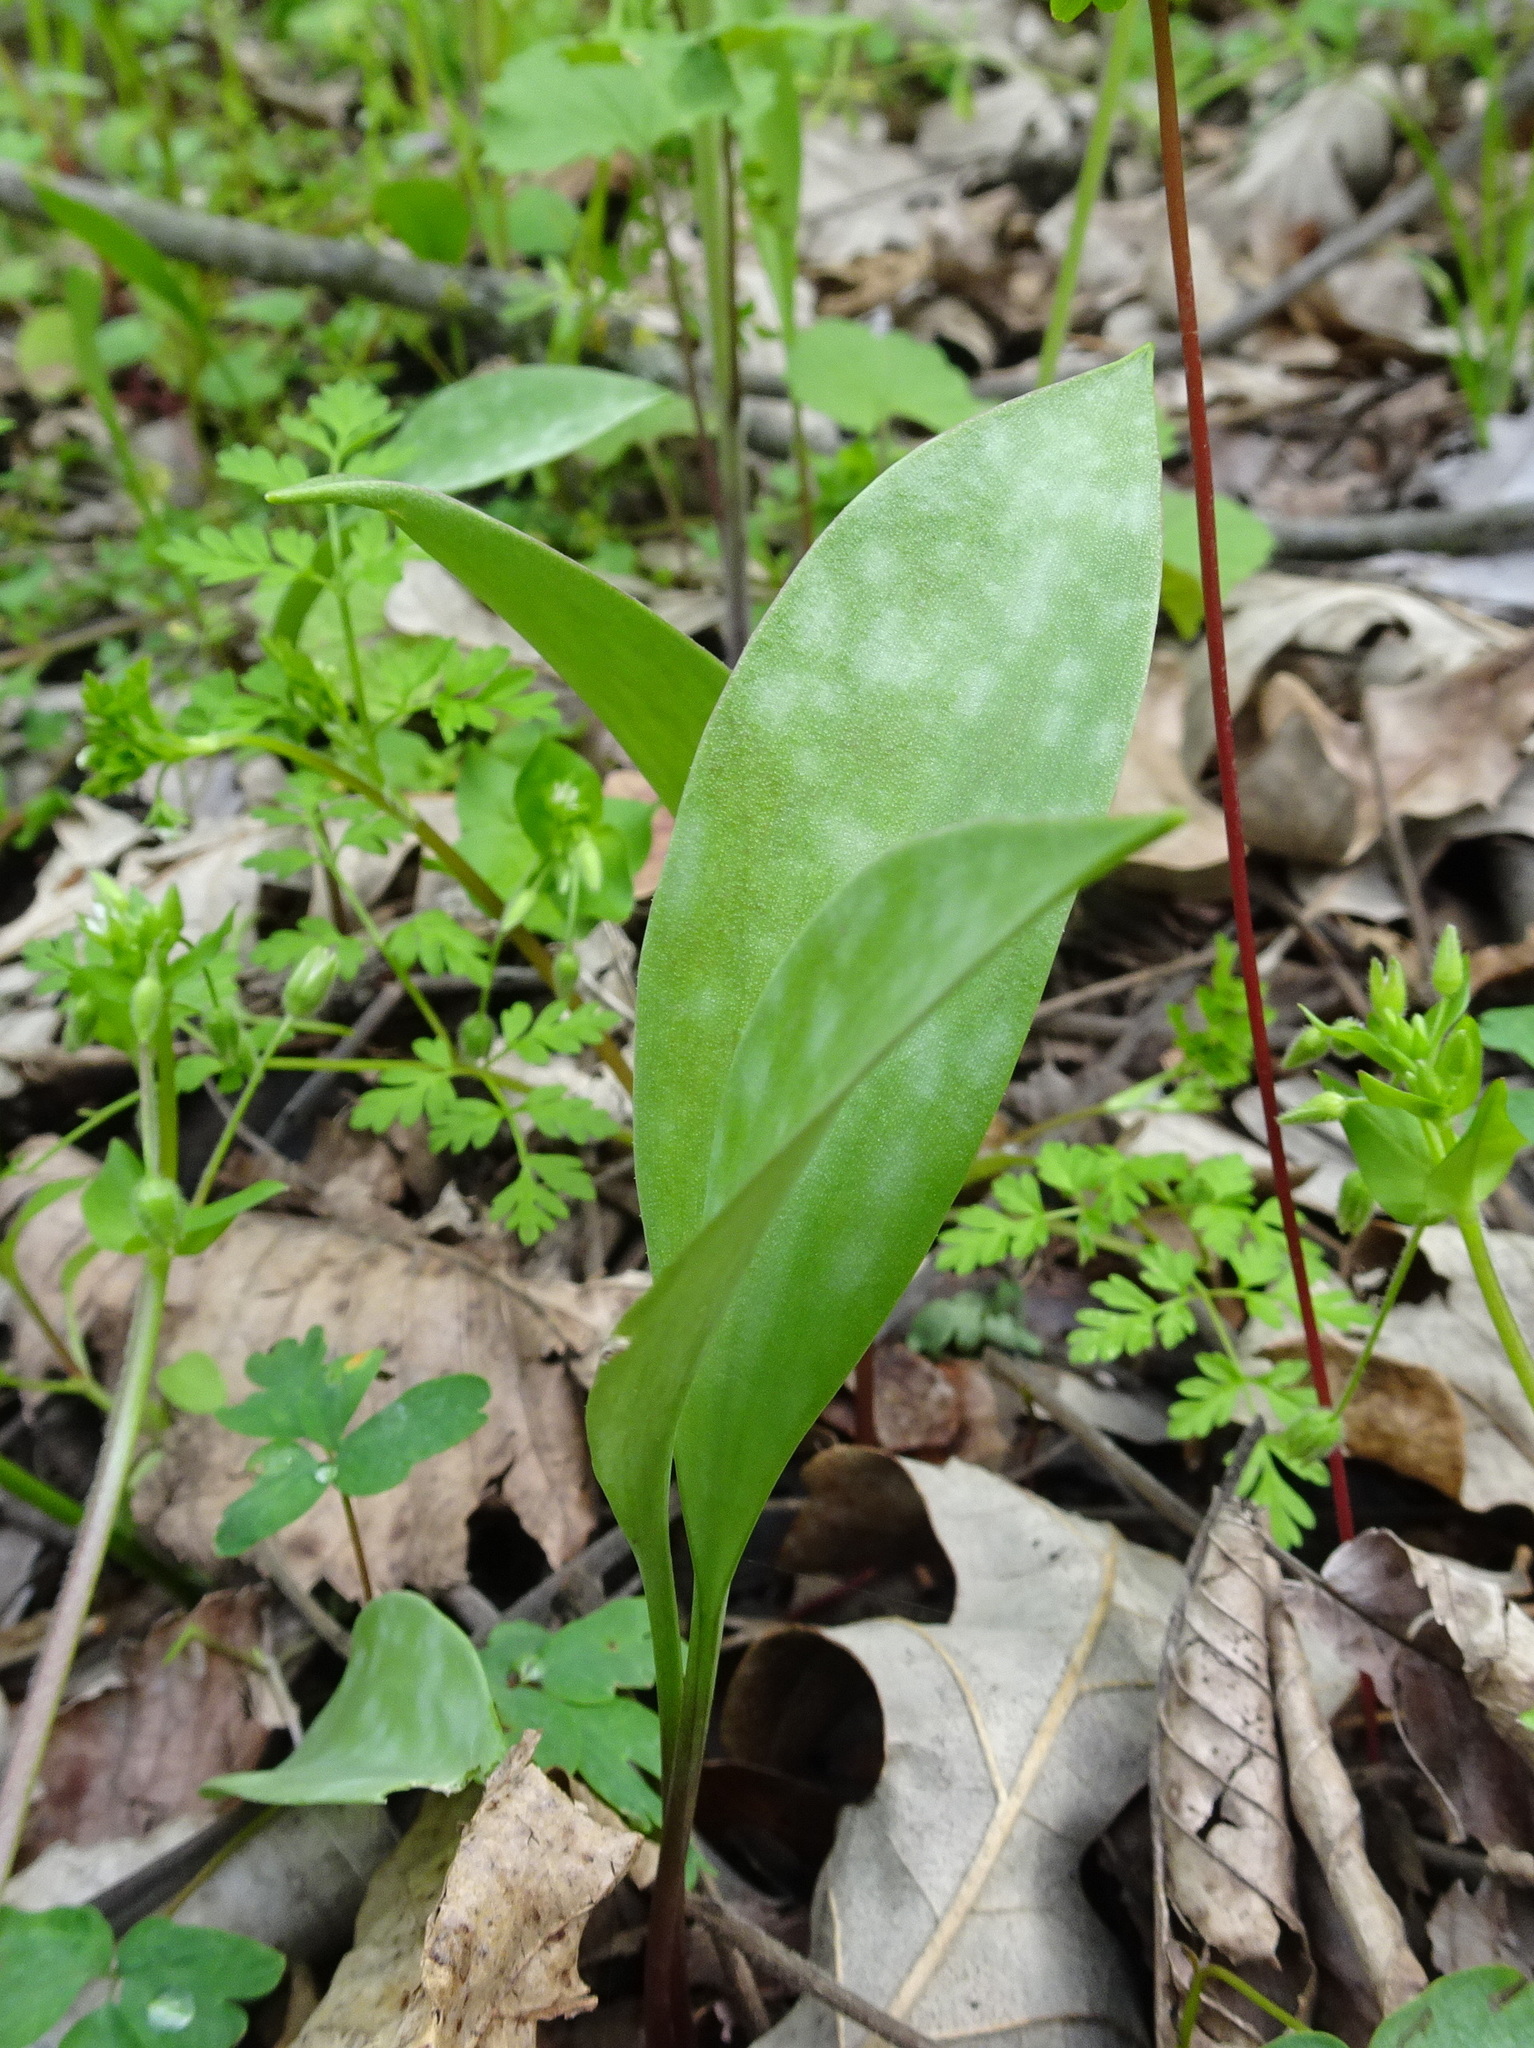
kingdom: Plantae
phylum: Tracheophyta
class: Liliopsida
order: Liliales
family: Liliaceae
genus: Erythronium
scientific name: Erythronium albidum
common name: White trout-lily
